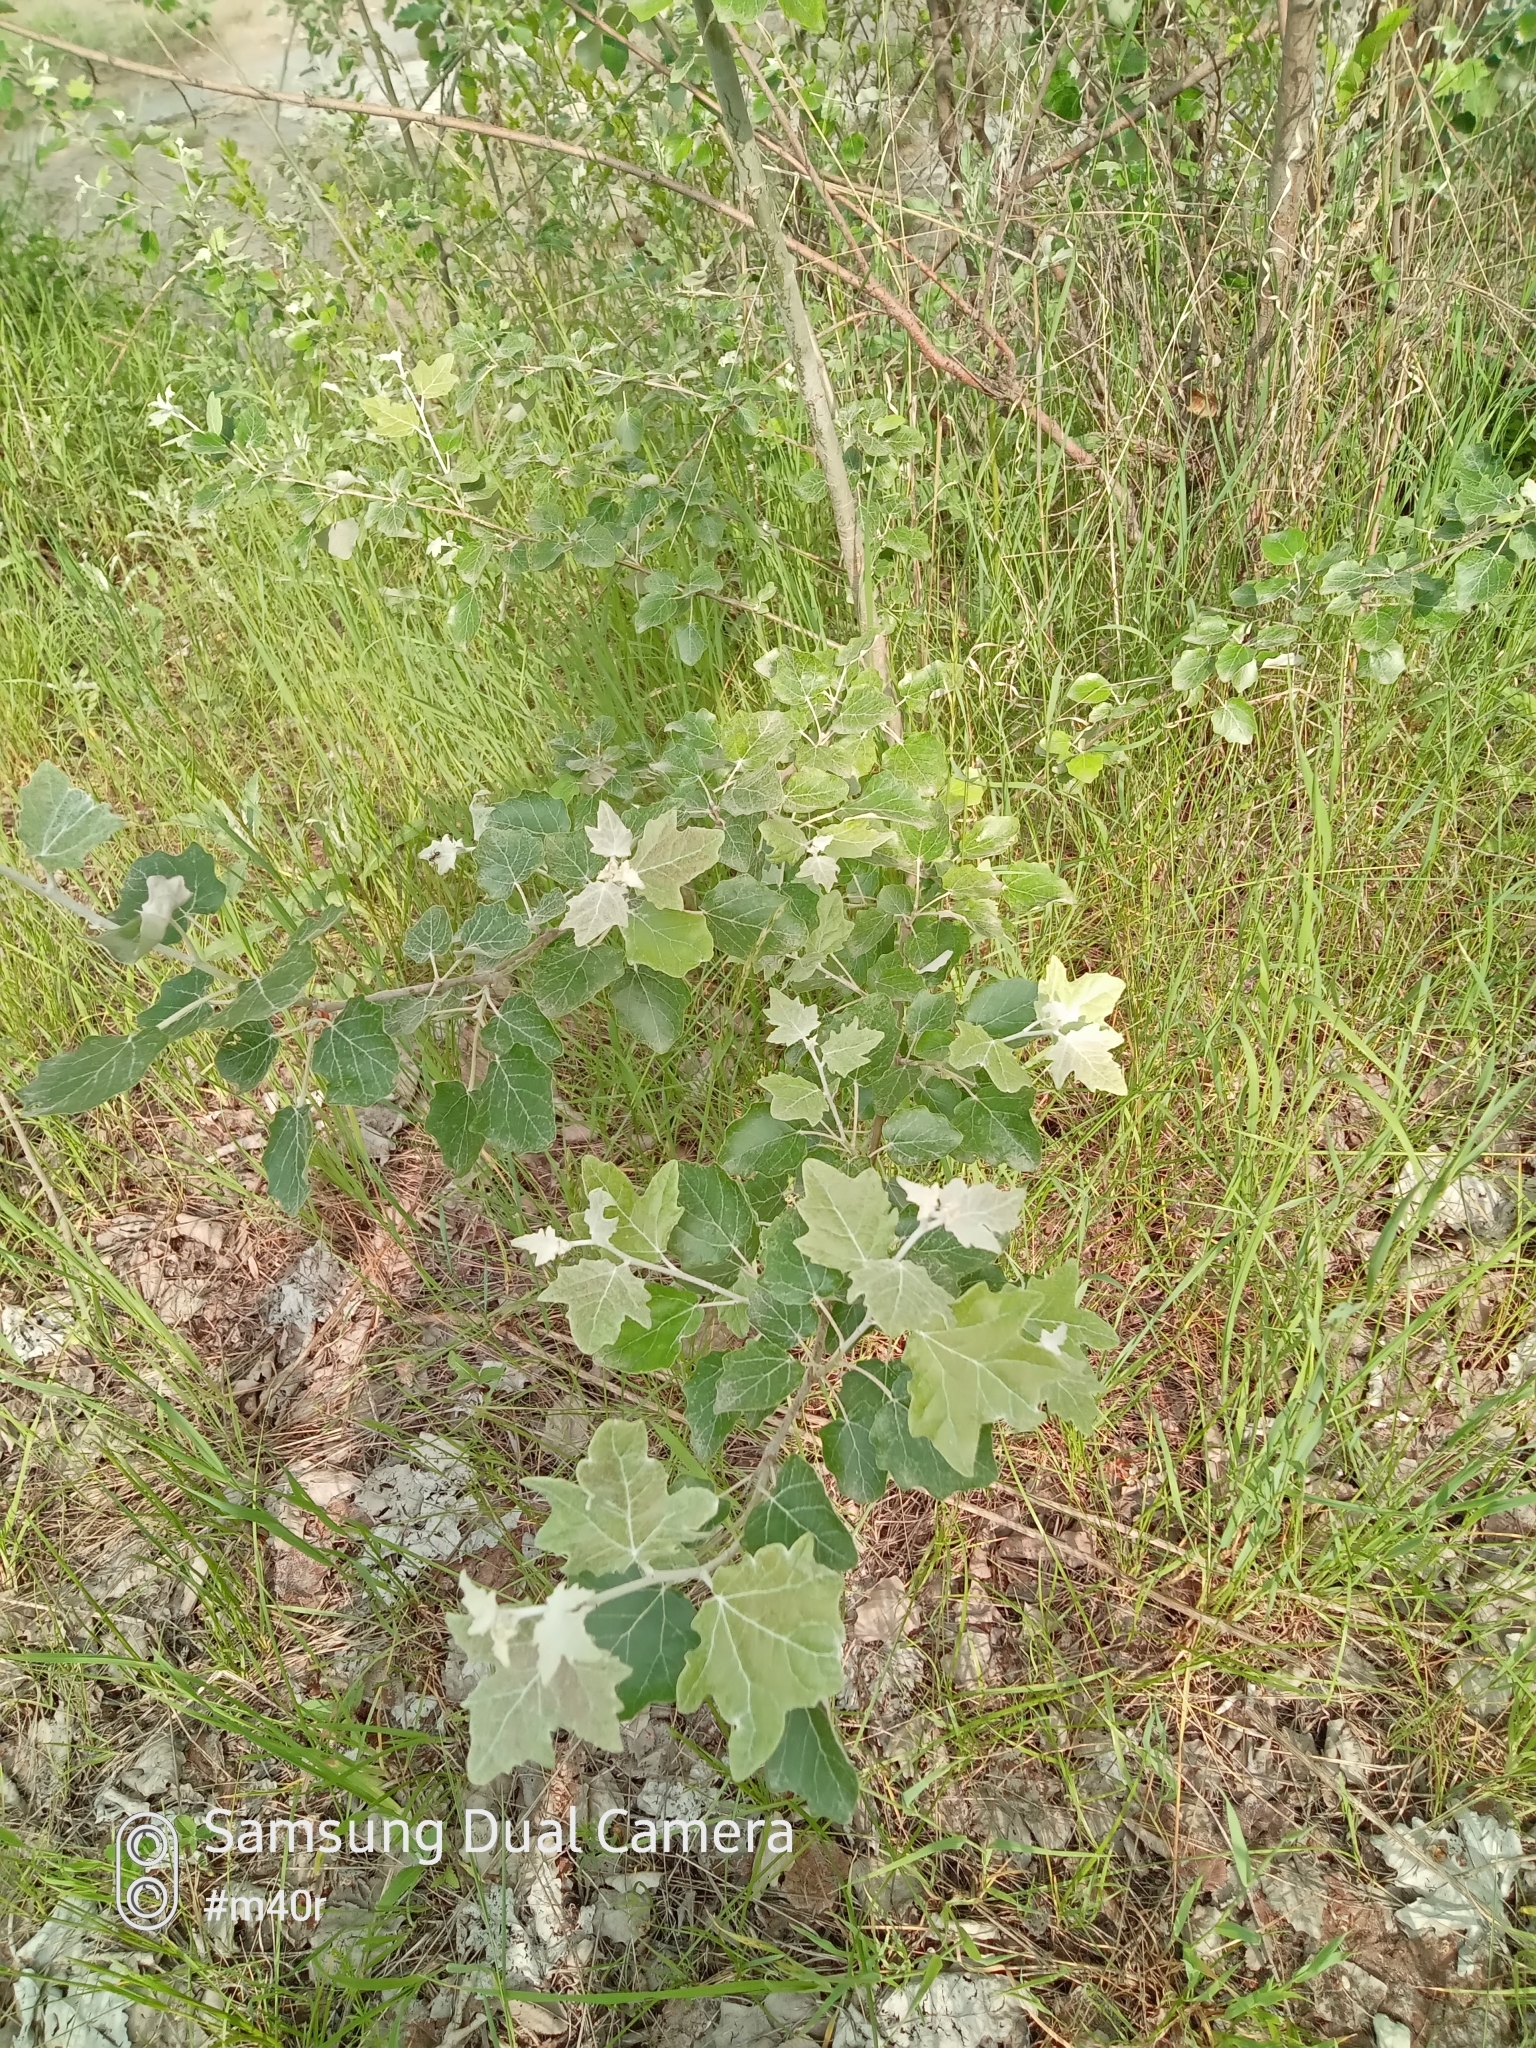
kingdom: Plantae
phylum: Tracheophyta
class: Magnoliopsida
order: Malpighiales
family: Salicaceae
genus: Populus
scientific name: Populus alba
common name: White poplar
